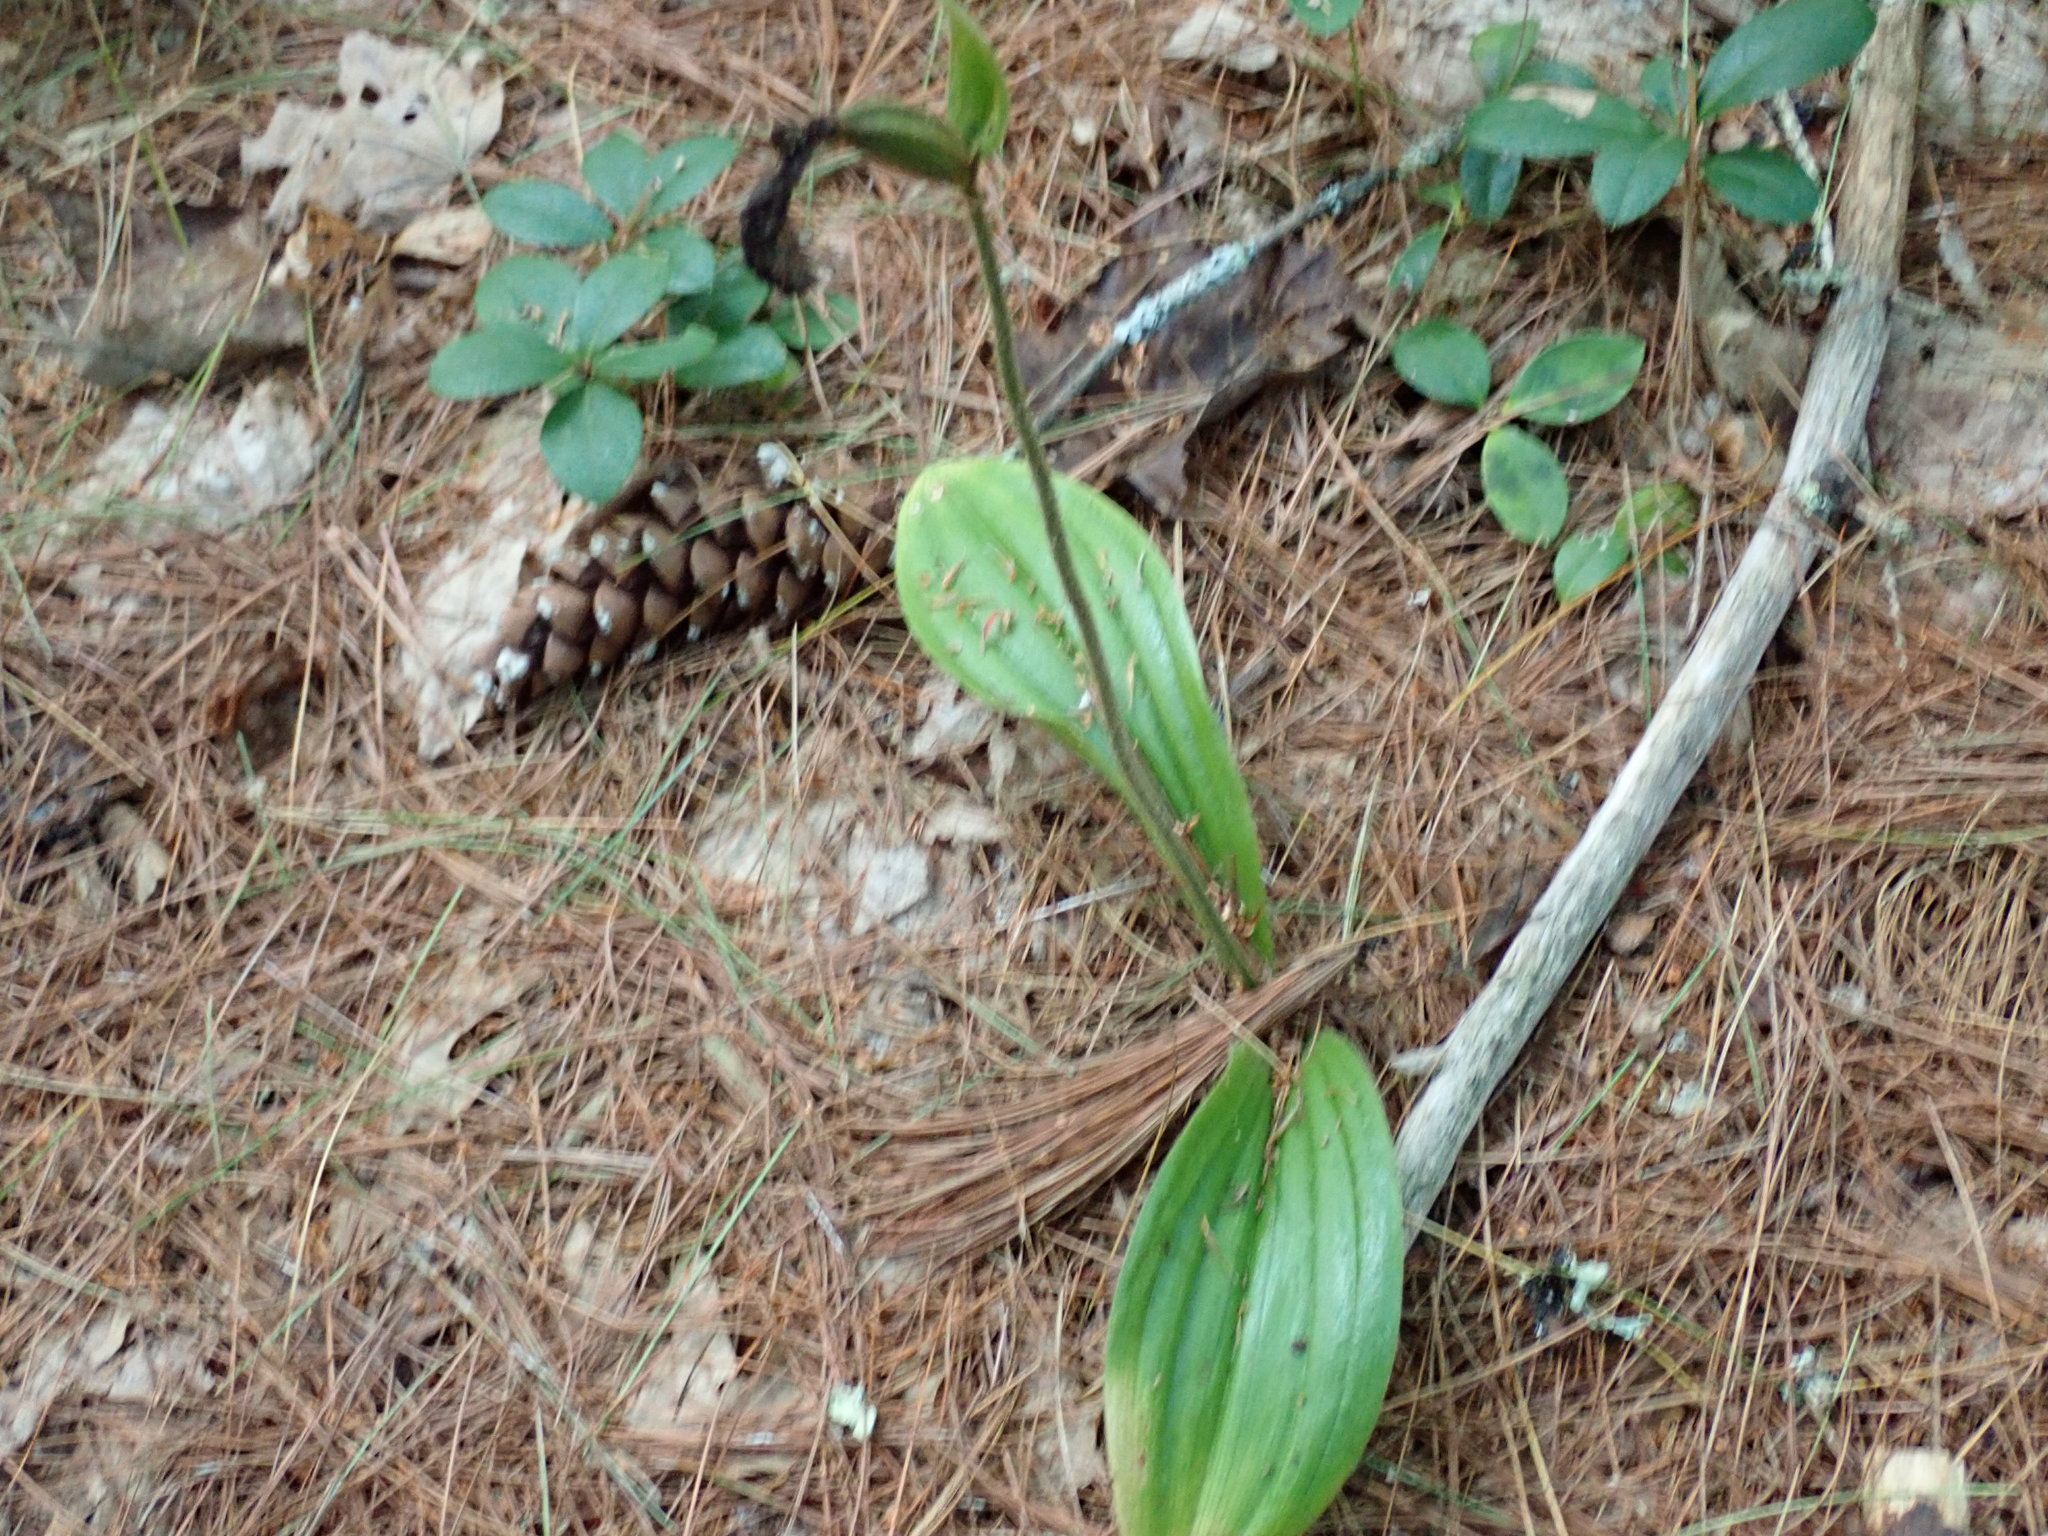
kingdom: Plantae
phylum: Tracheophyta
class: Liliopsida
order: Asparagales
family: Orchidaceae
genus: Cypripedium
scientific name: Cypripedium acaule
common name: Pink lady's-slipper
